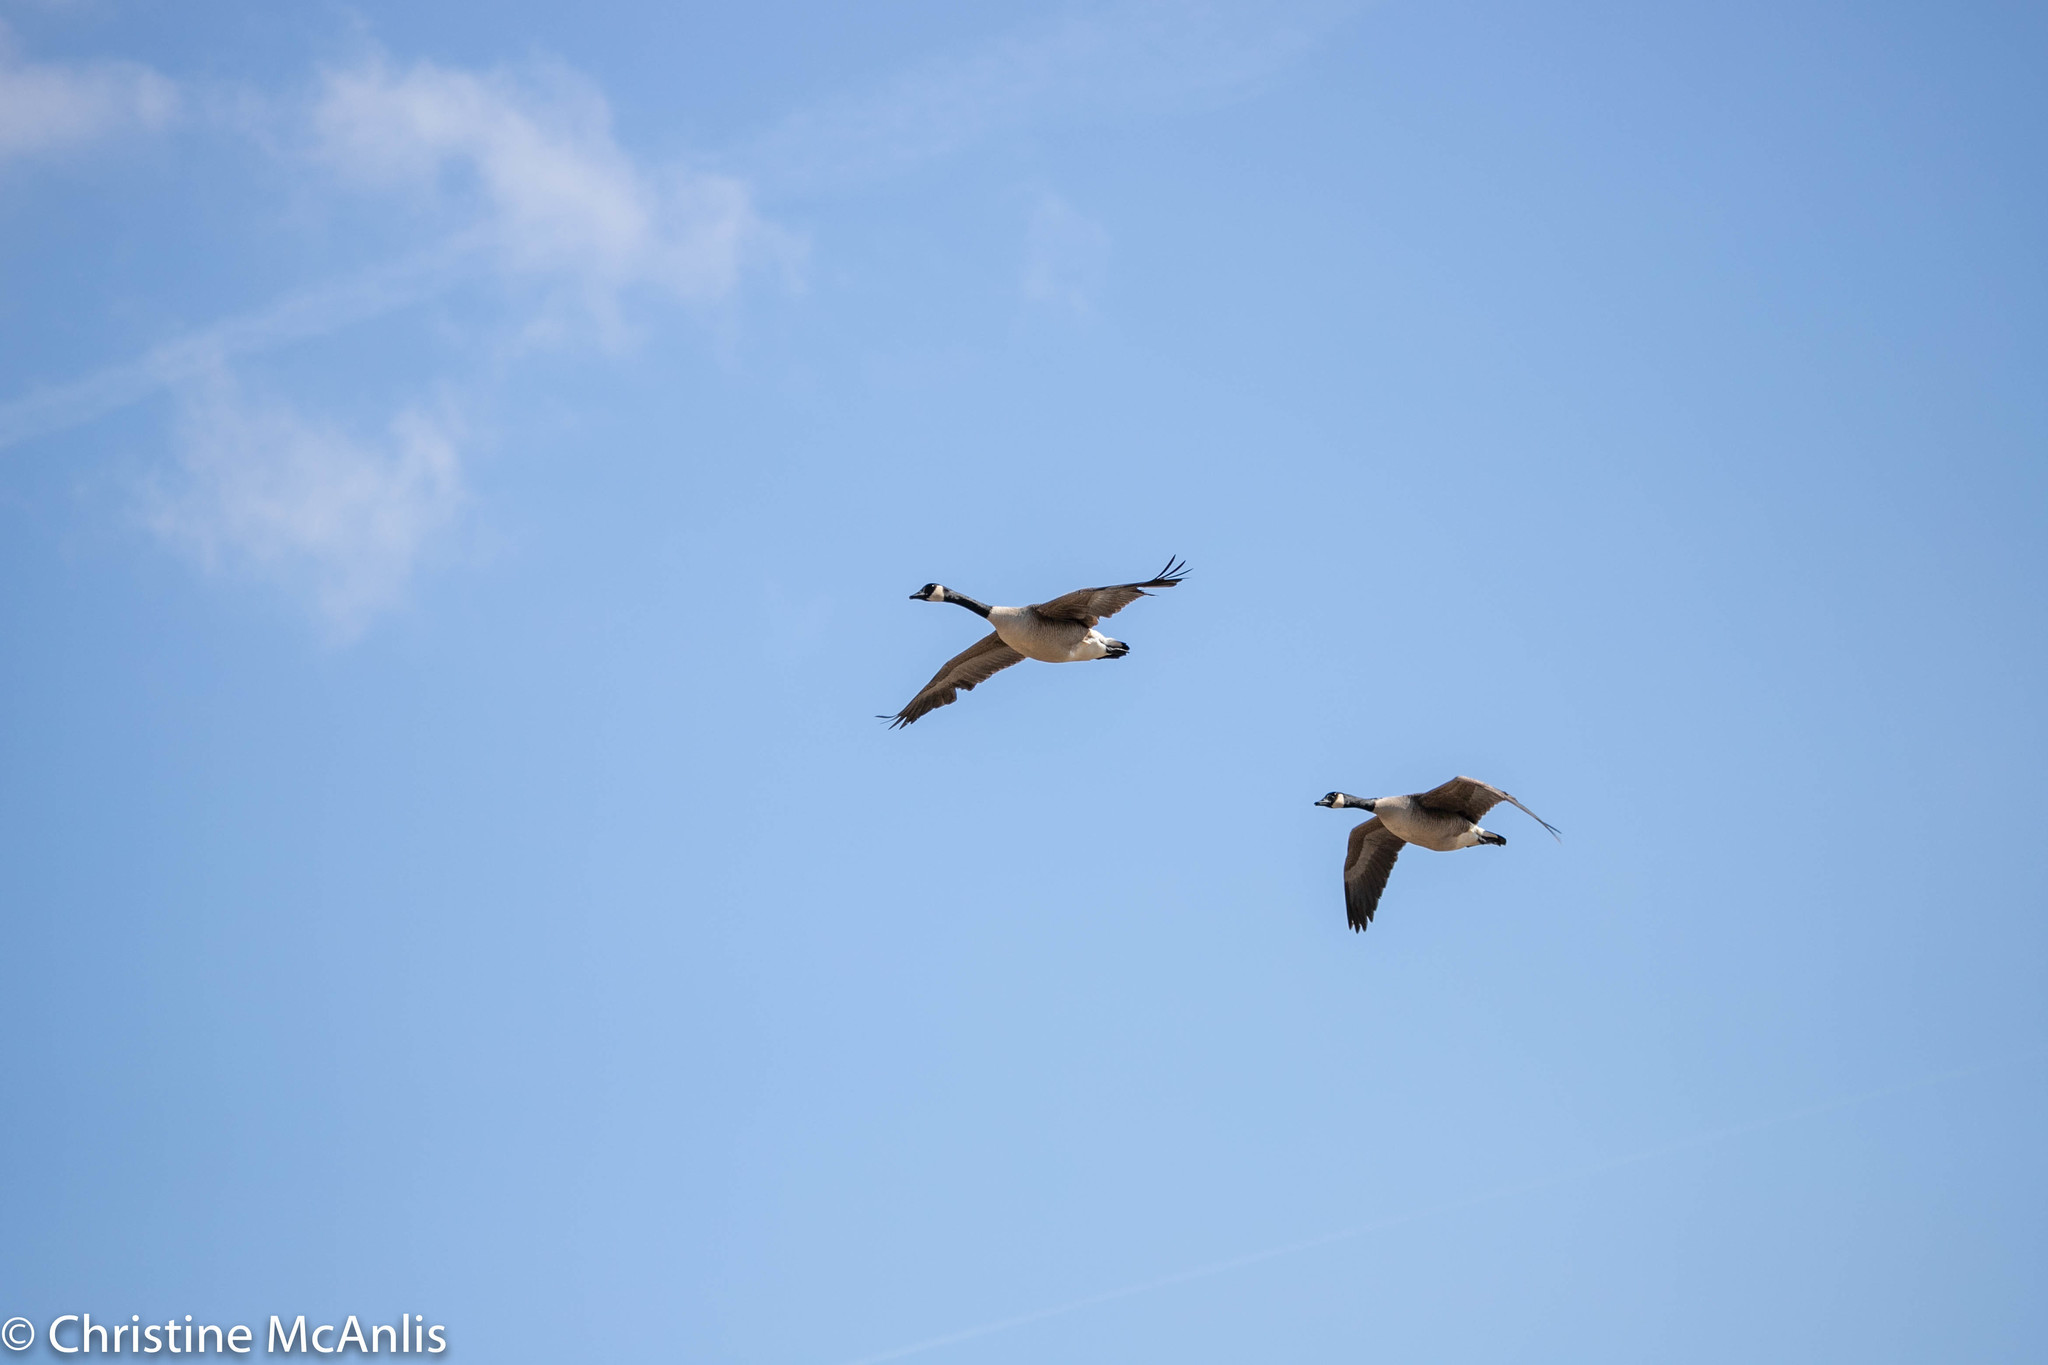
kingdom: Animalia
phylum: Chordata
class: Aves
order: Anseriformes
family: Anatidae
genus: Branta
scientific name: Branta canadensis
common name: Canada goose
